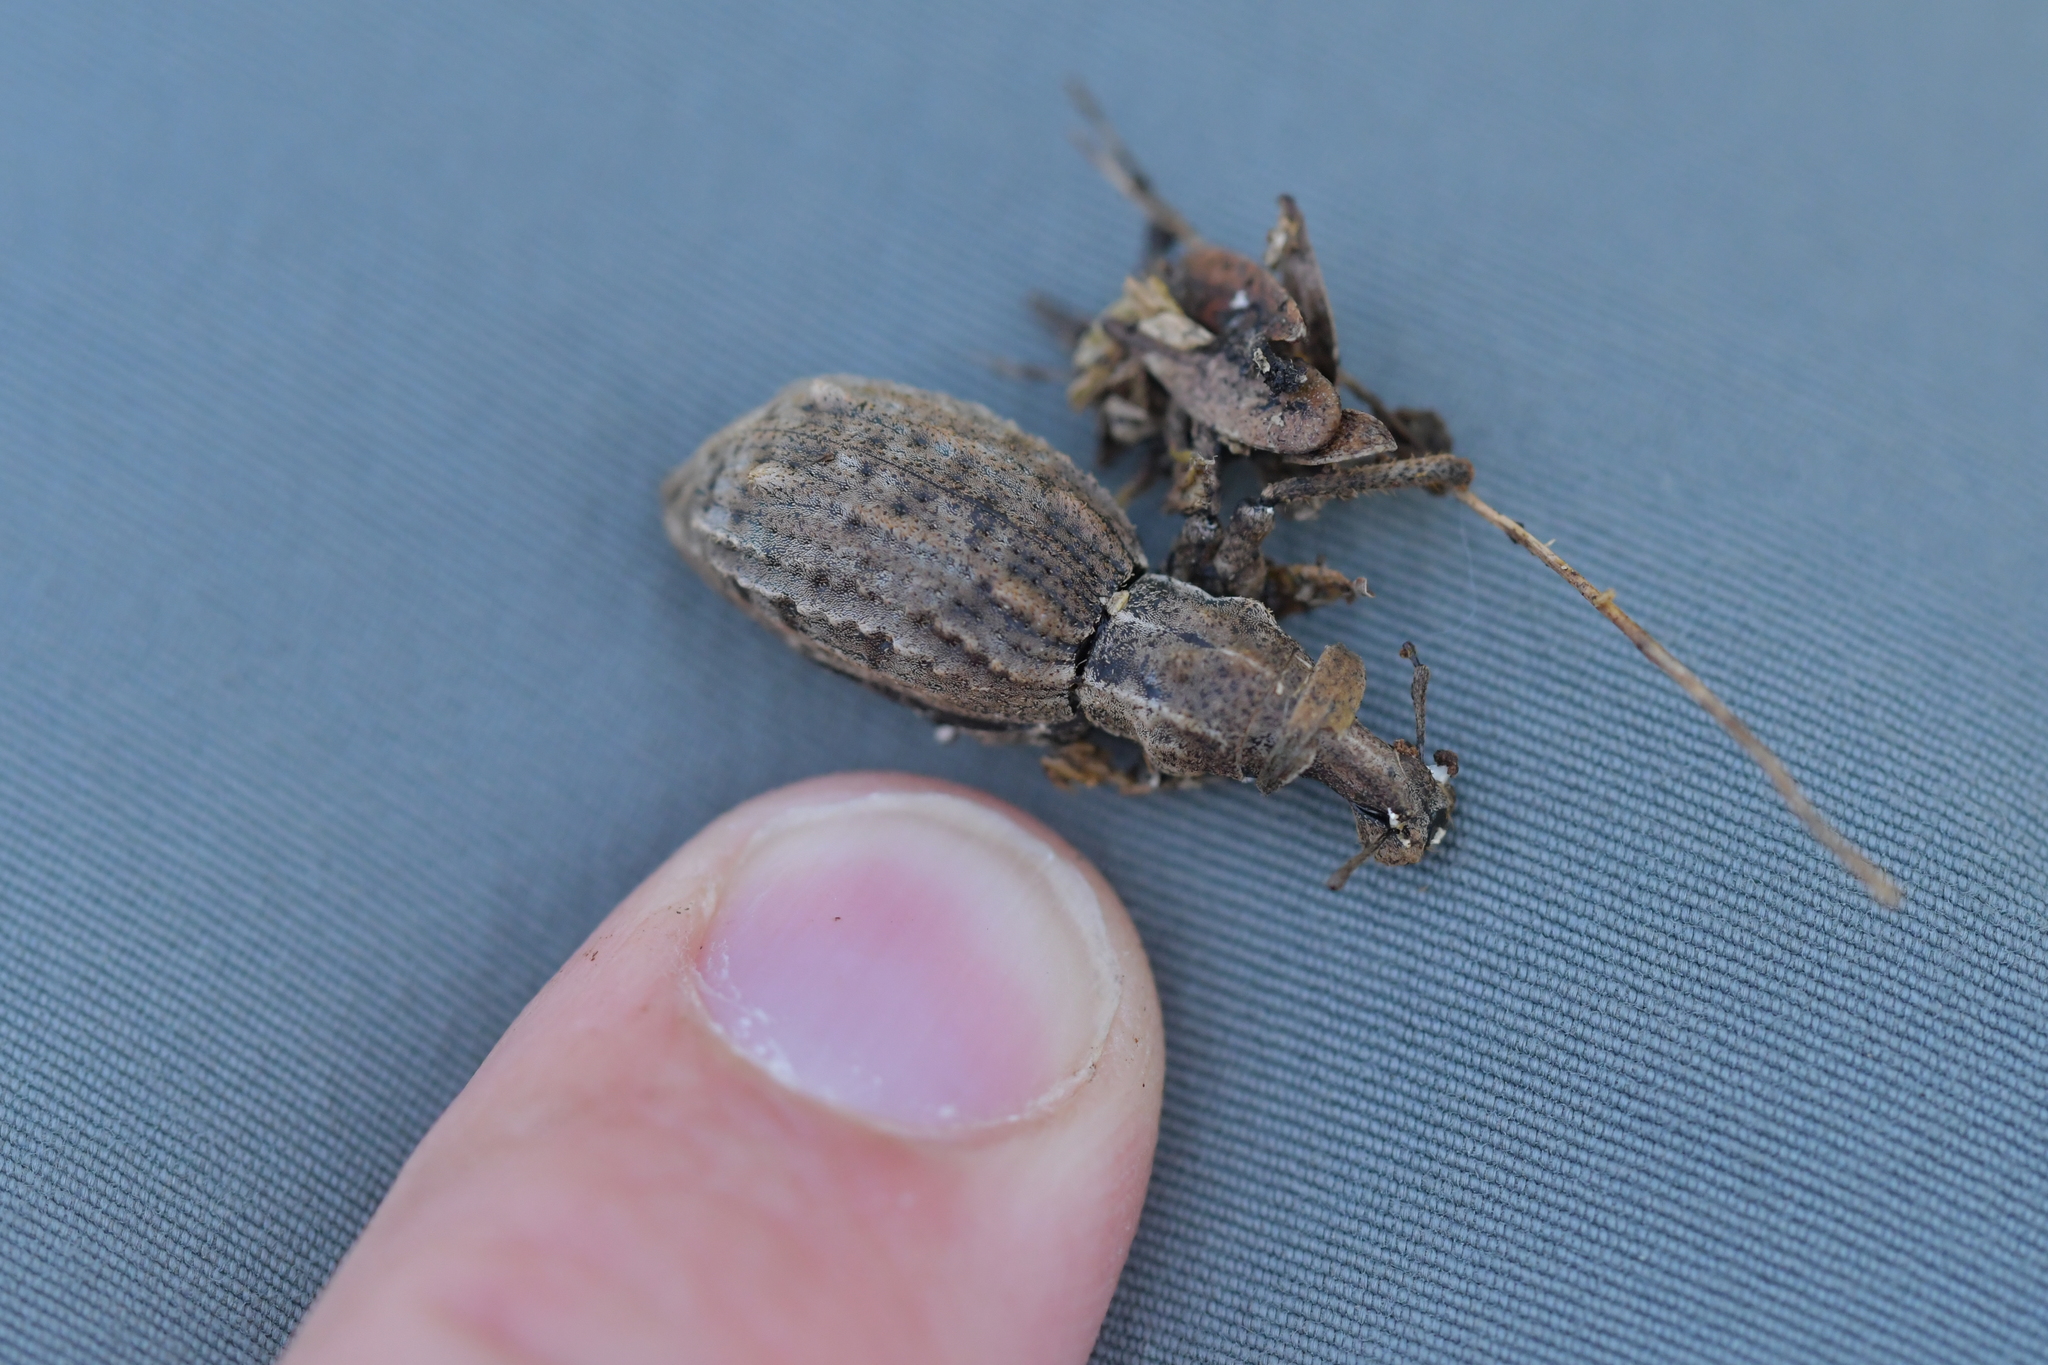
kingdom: Animalia
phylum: Arthropoda
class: Insecta
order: Coleoptera
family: Curculionidae
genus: Anagotus
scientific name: Anagotus fairburni
